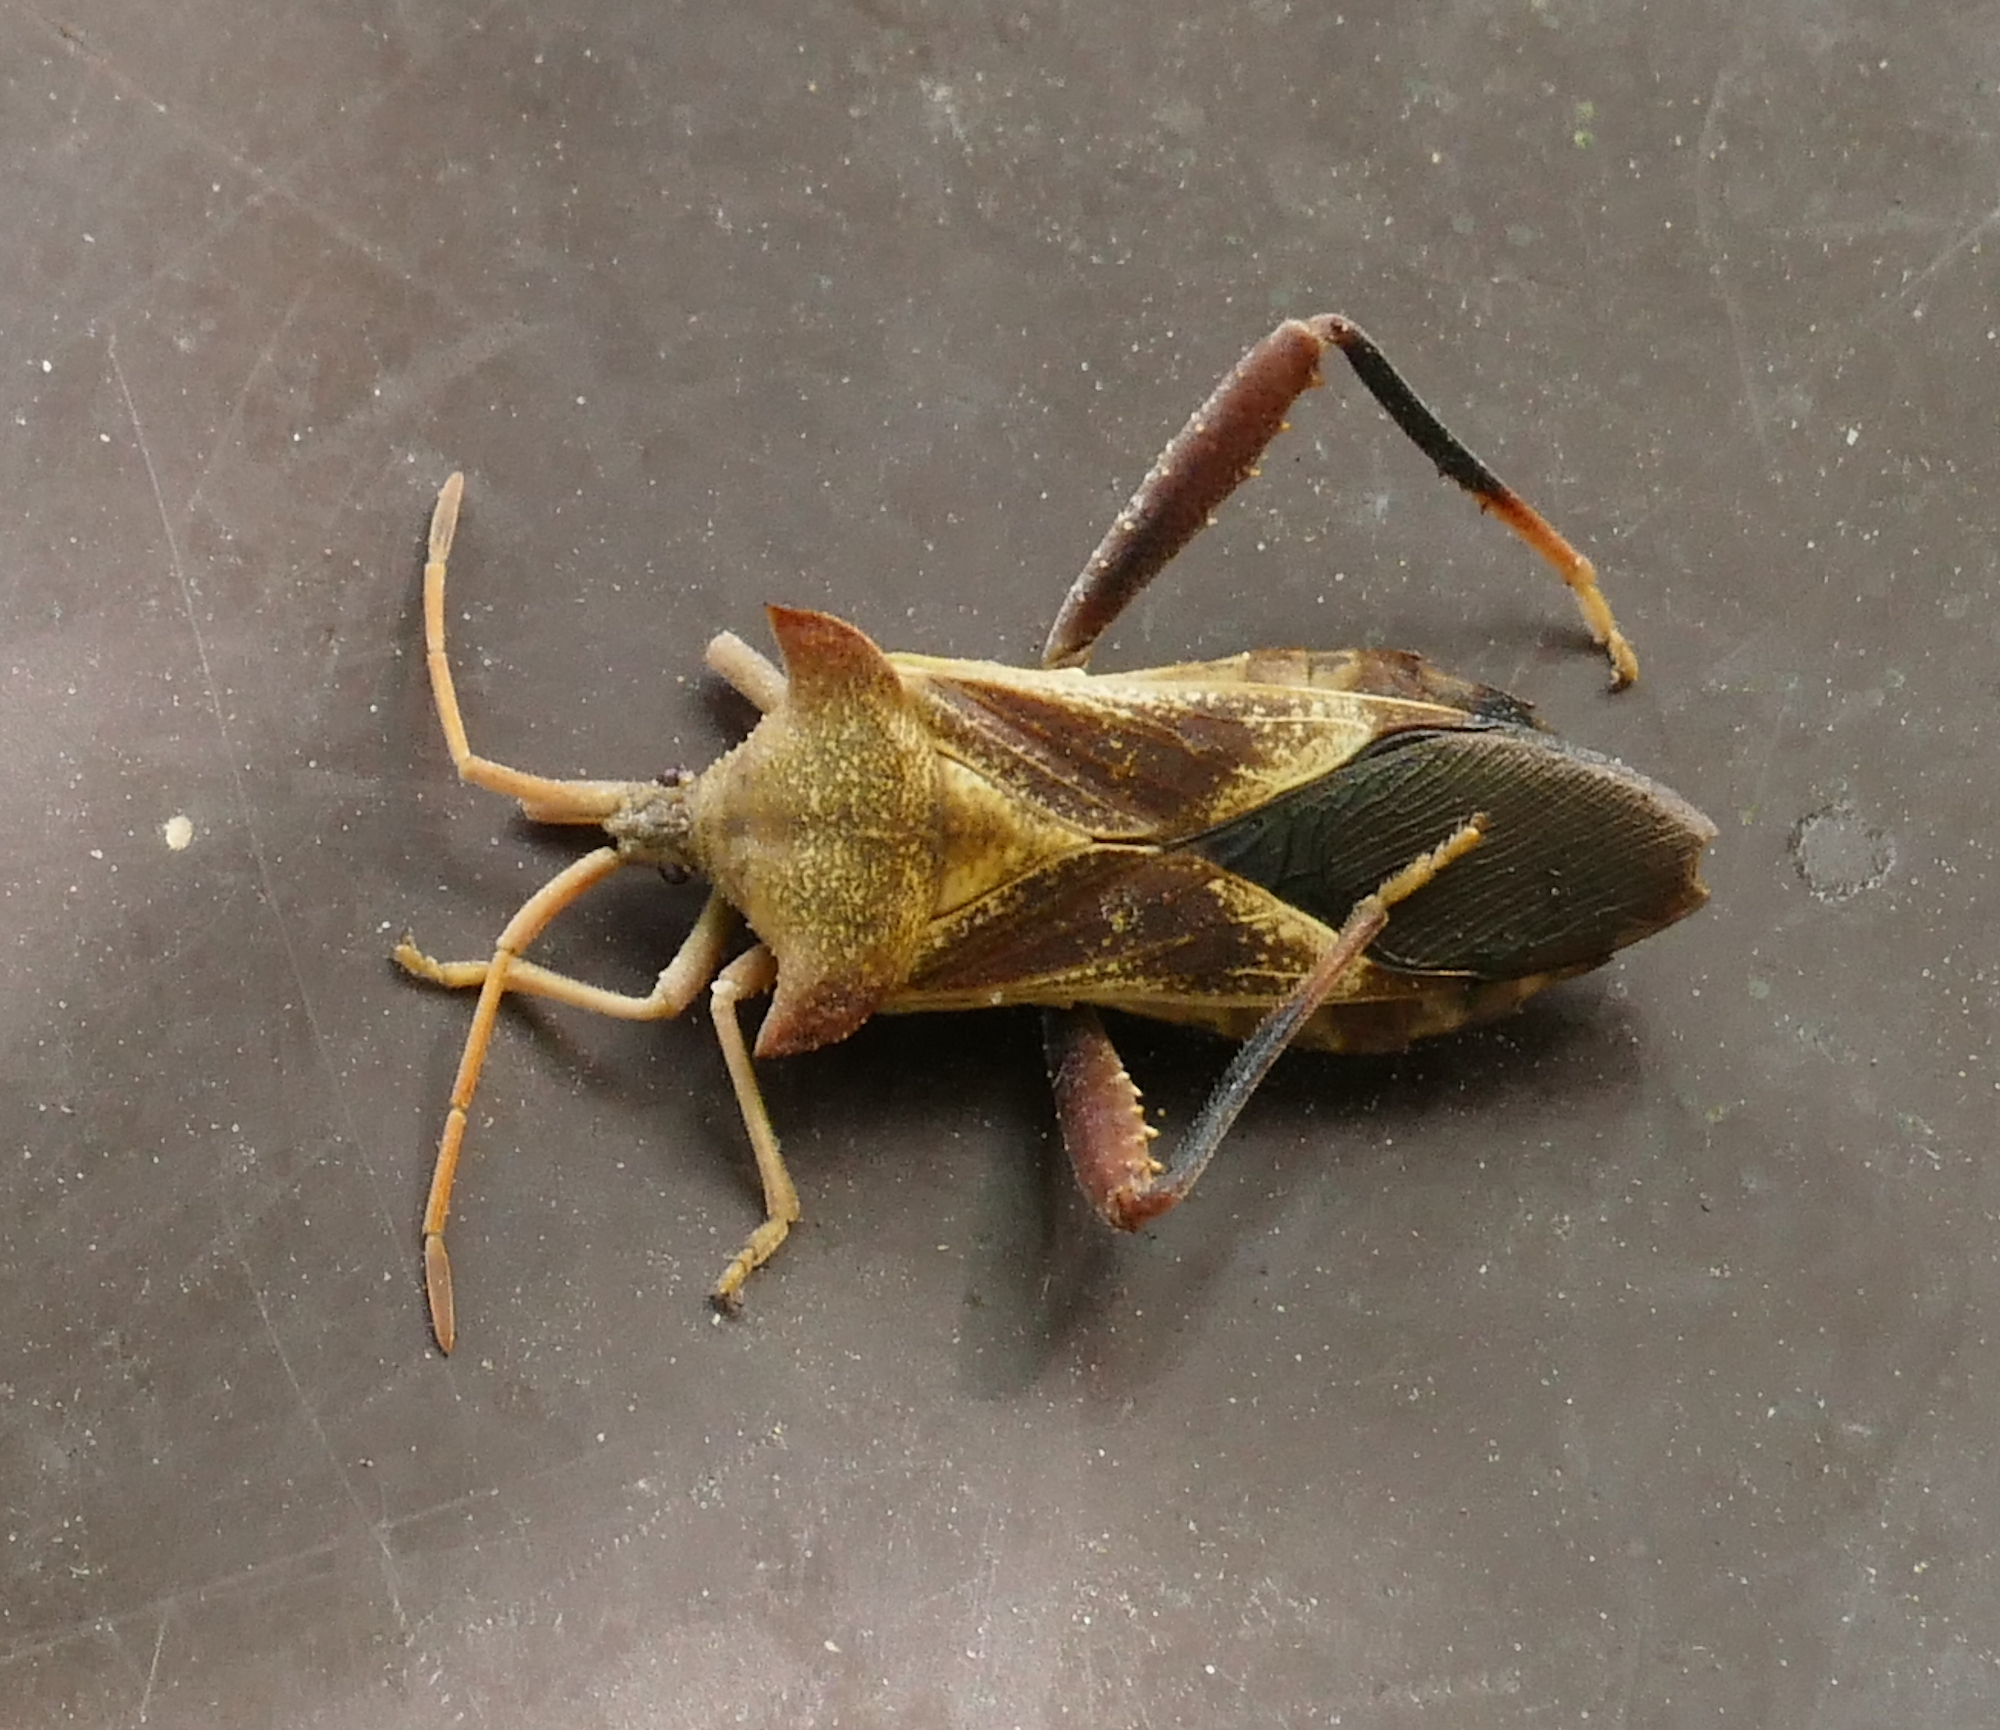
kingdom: Animalia
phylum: Arthropoda
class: Insecta
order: Hemiptera
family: Coreidae
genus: Mozena
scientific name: Mozena arizonensis
